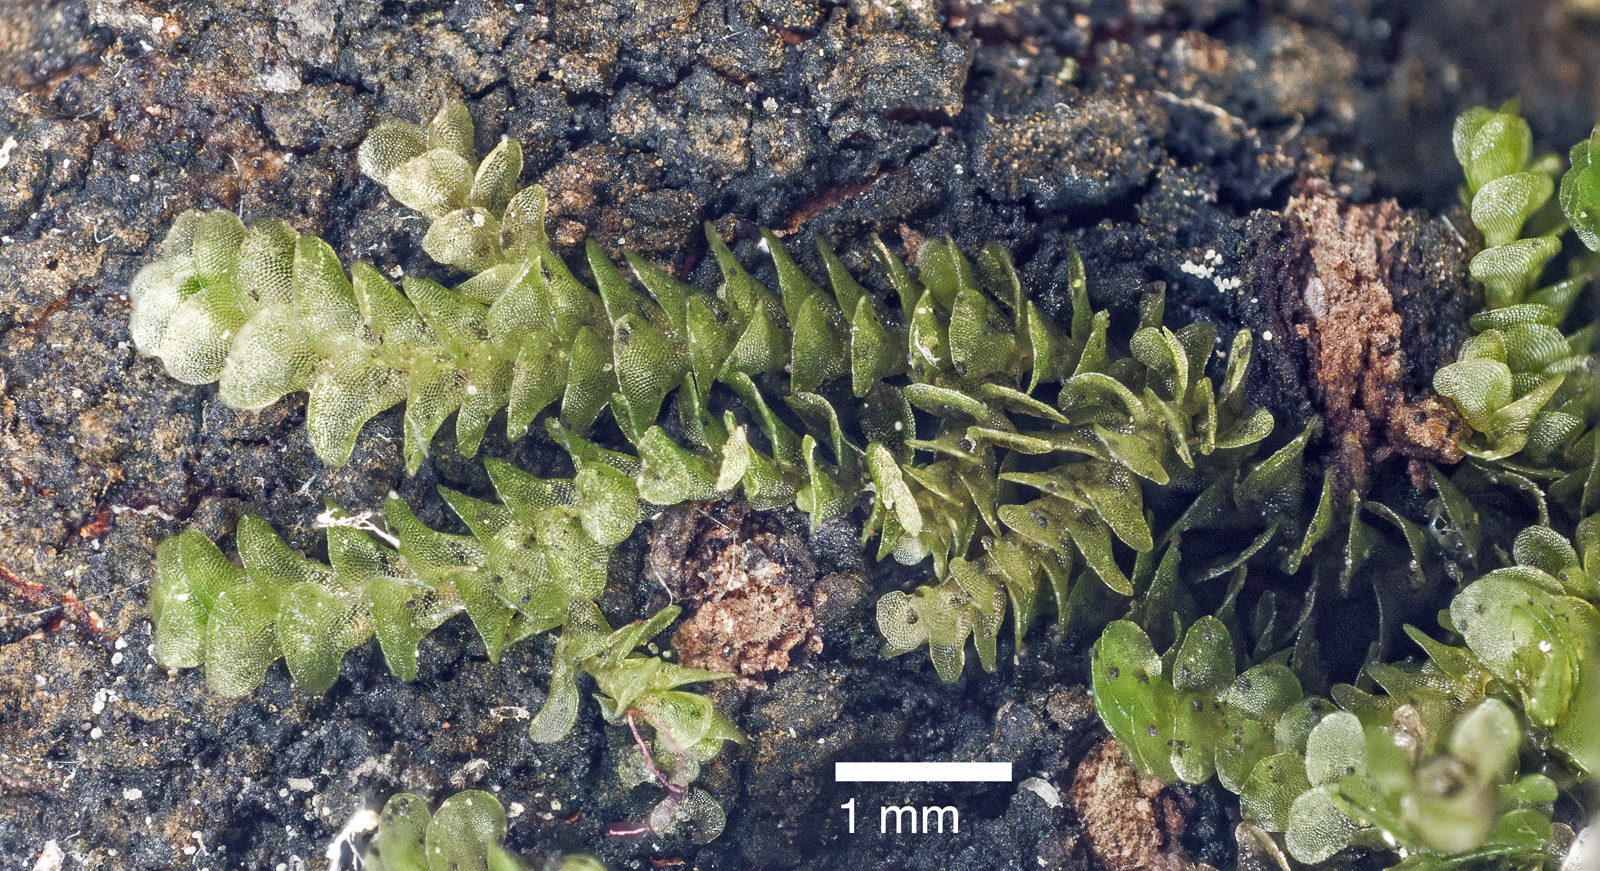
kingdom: Plantae
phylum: Marchantiophyta
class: Jungermanniopsida
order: Porellales
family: Frullaniaceae
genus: Frullania
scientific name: Frullania patula
